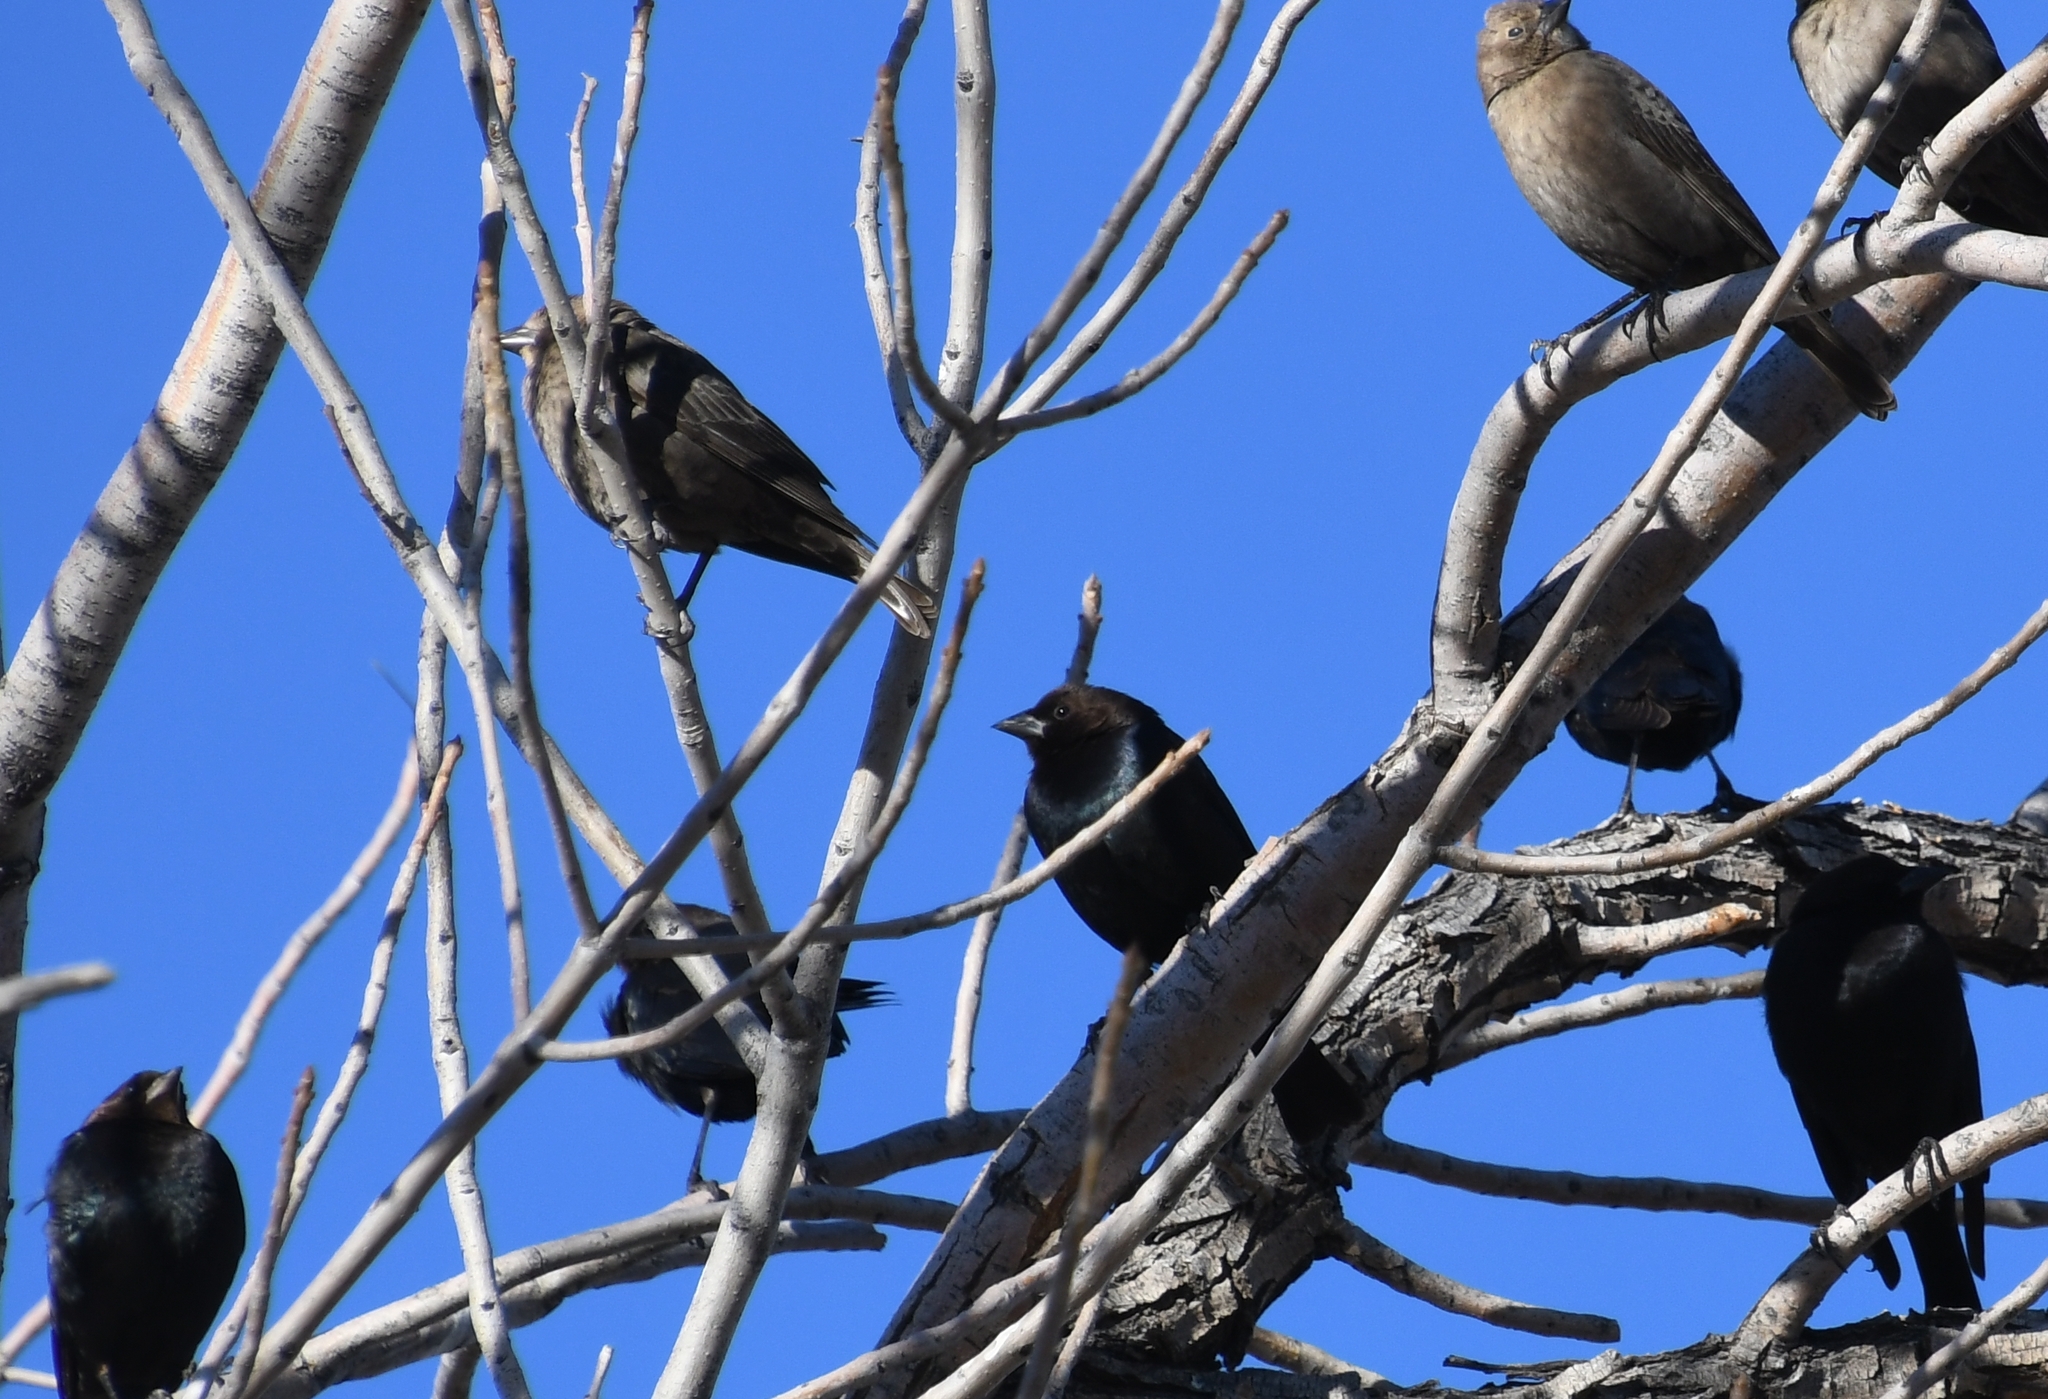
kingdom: Animalia
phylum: Chordata
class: Aves
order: Passeriformes
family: Icteridae
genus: Molothrus
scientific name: Molothrus ater
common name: Brown-headed cowbird
